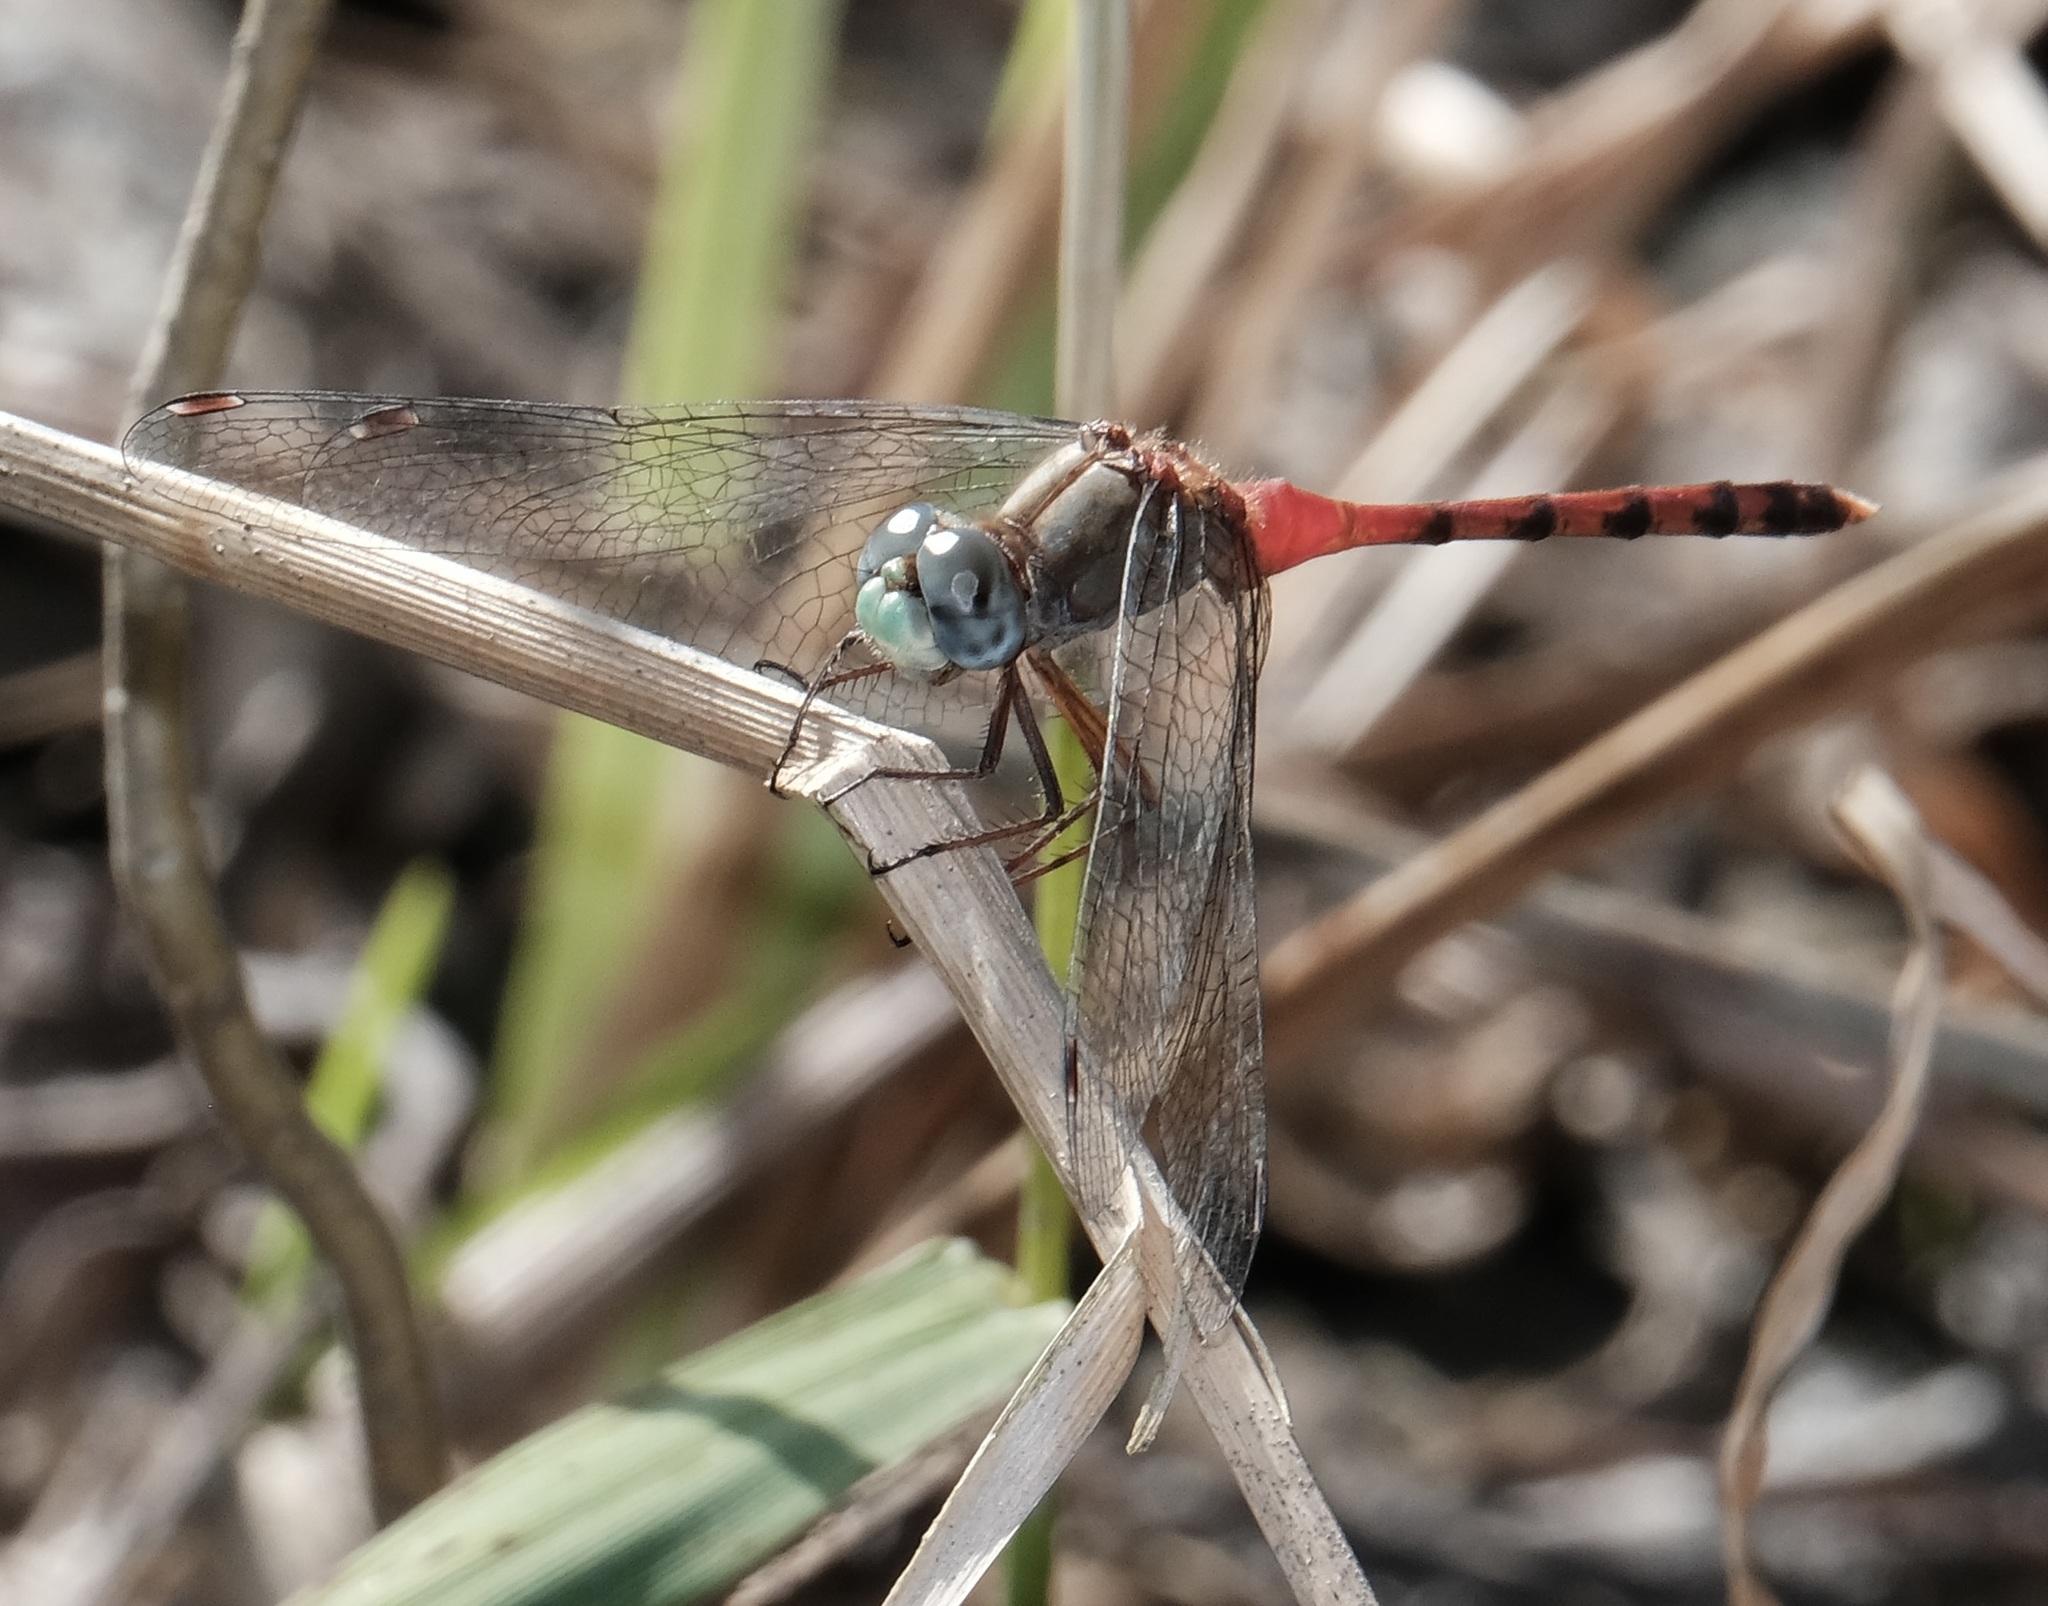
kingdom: Animalia
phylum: Arthropoda
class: Insecta
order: Odonata
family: Libellulidae
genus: Sympetrum
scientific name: Sympetrum ambiguum
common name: Blue-faced meadowhawk
